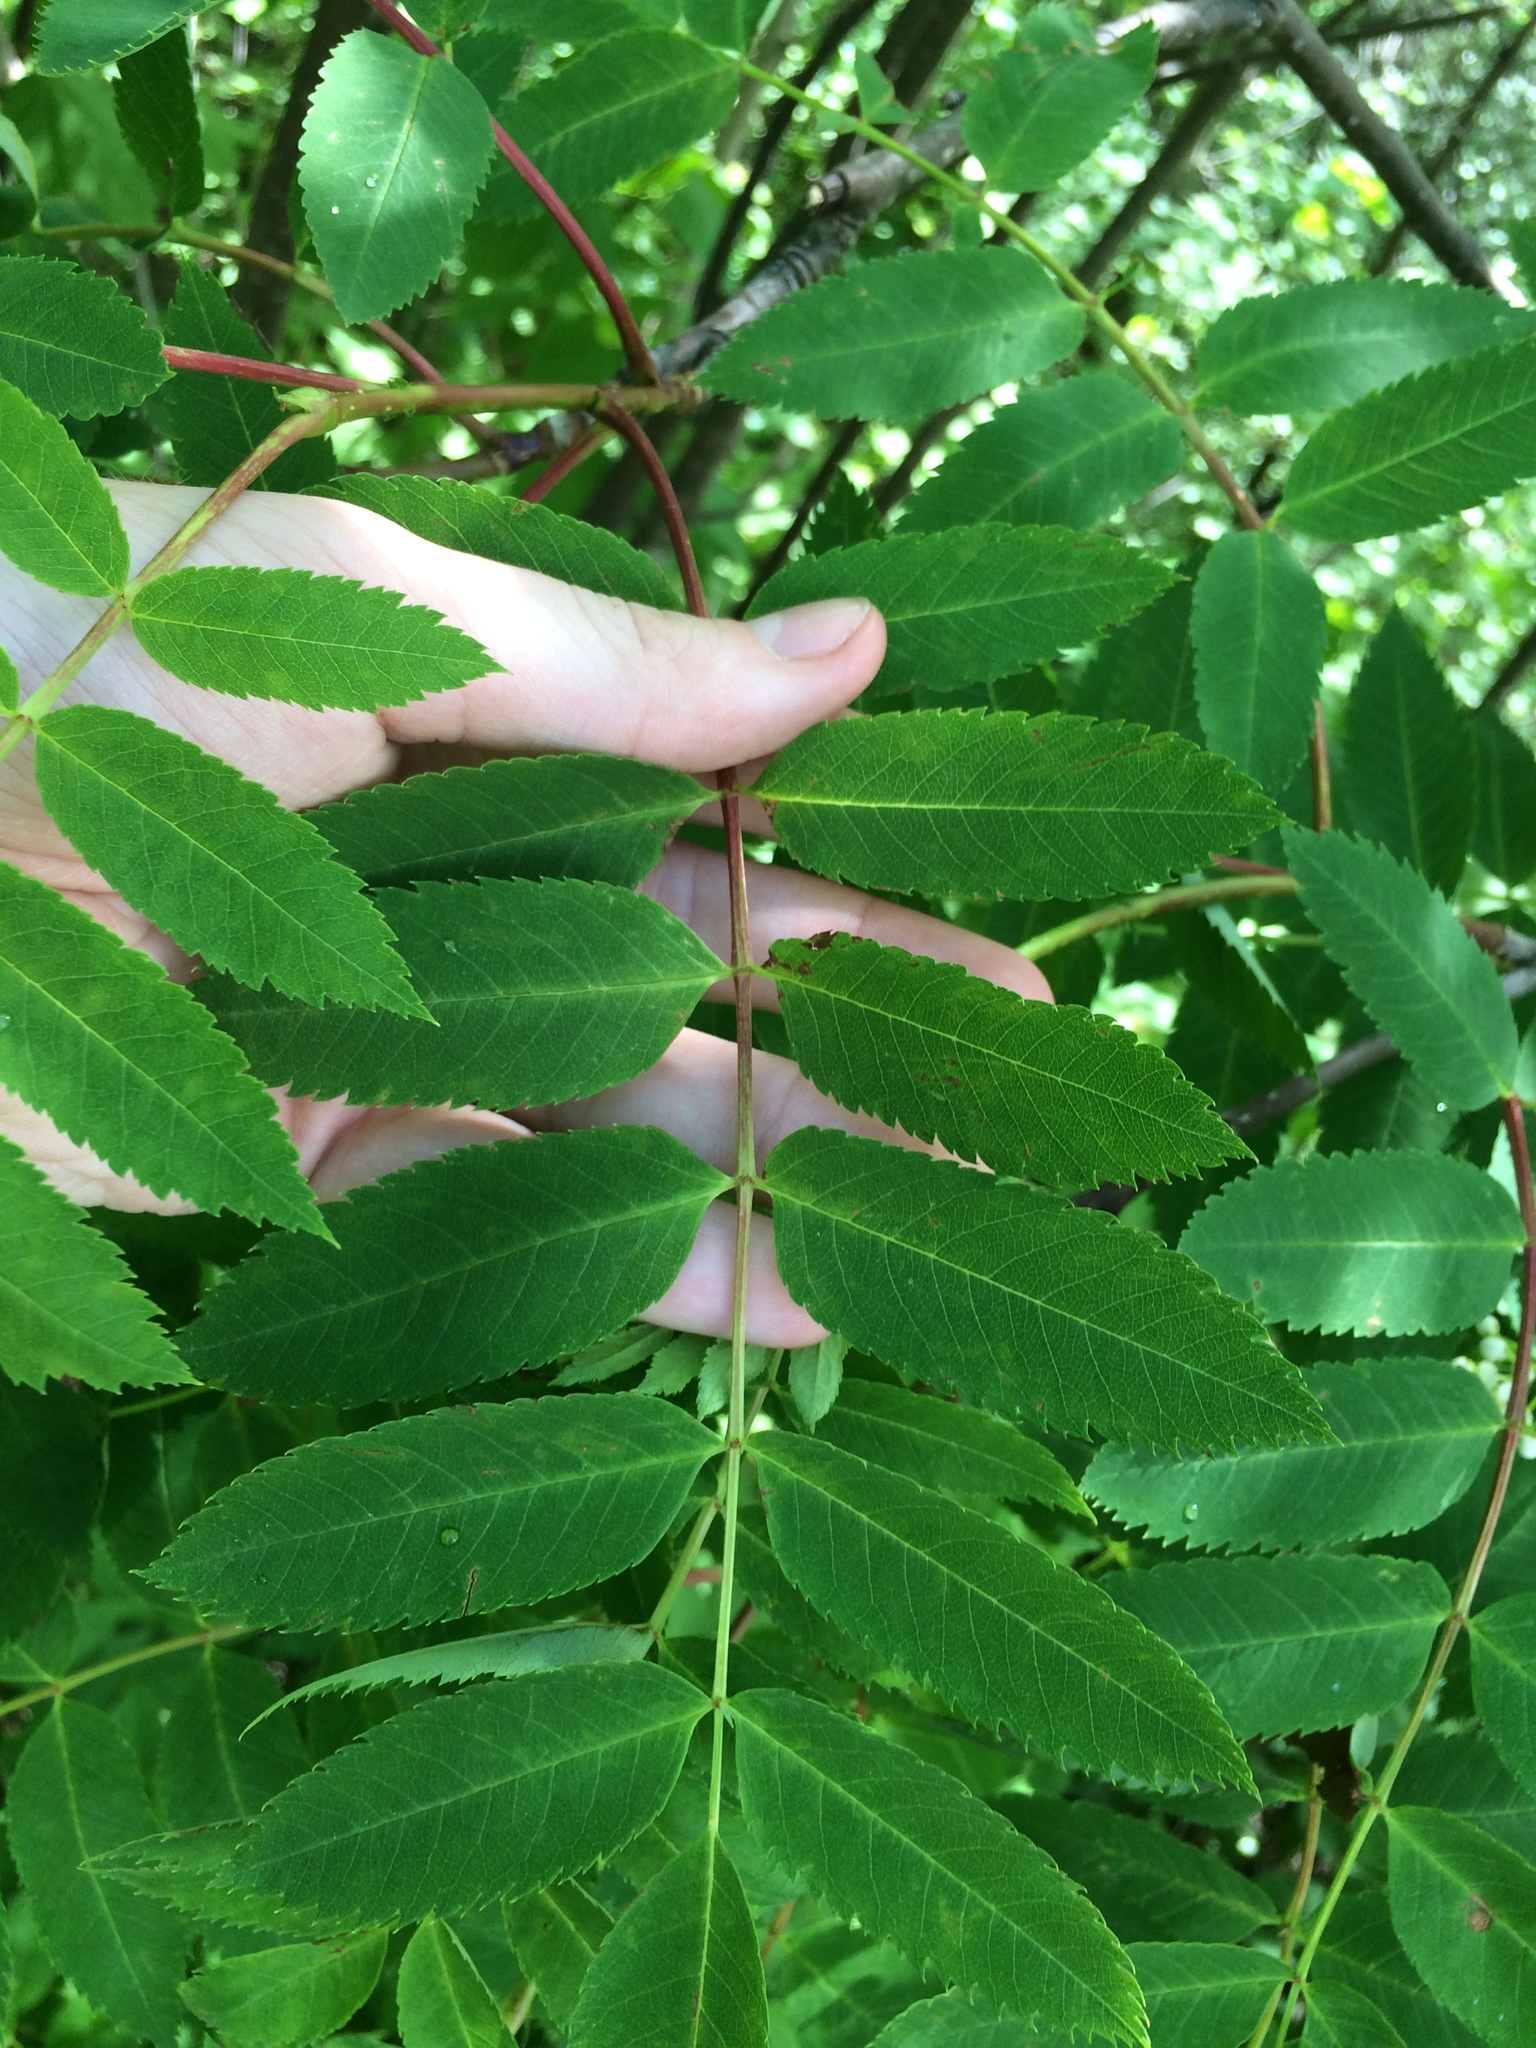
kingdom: Plantae
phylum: Tracheophyta
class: Magnoliopsida
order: Rosales
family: Rosaceae
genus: Sorbus
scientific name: Sorbus americana
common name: American mountain-ash
